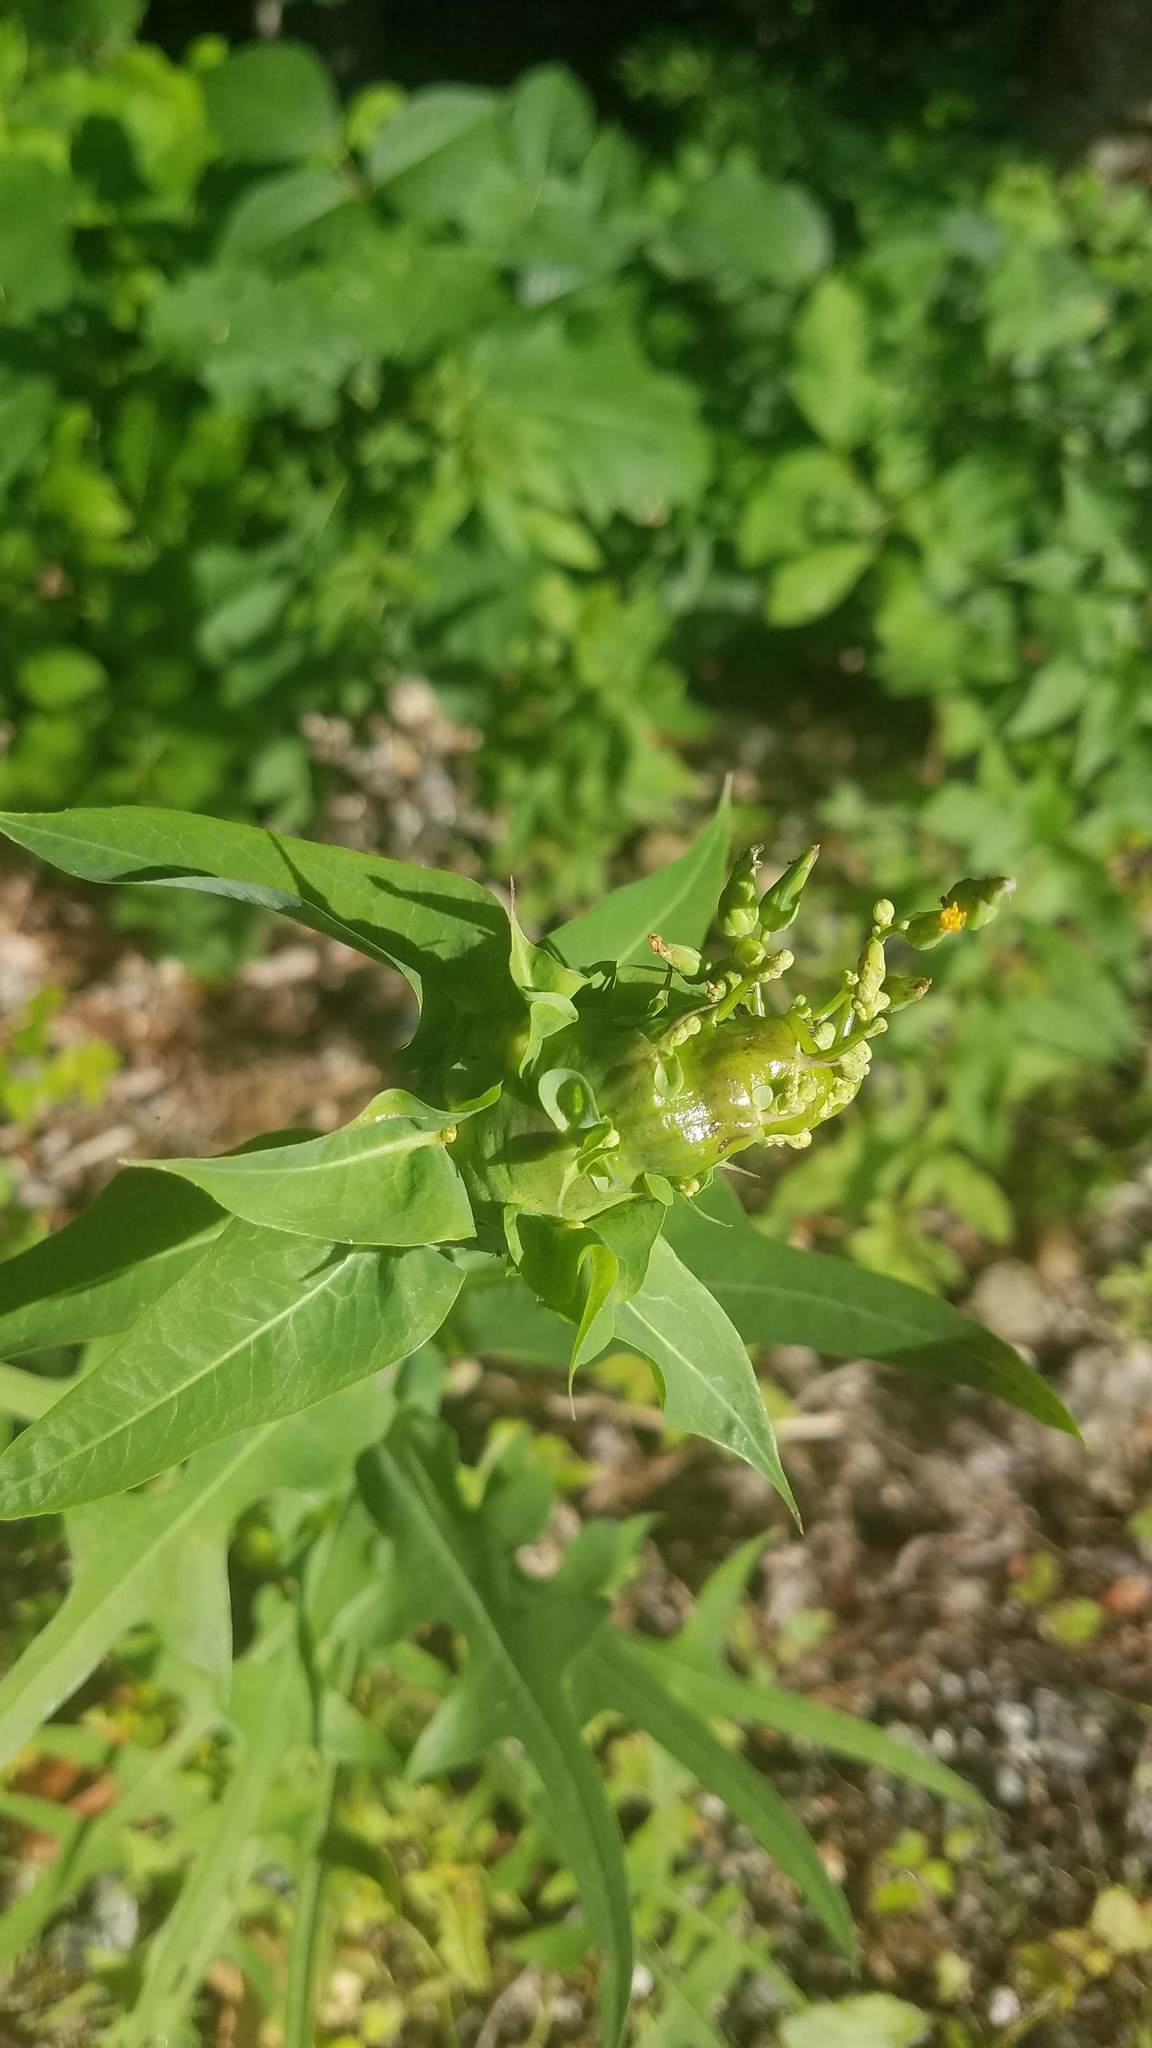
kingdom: Animalia
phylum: Arthropoda
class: Insecta
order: Hymenoptera
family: Cynipidae
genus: Aulacidea
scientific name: Aulacidea
